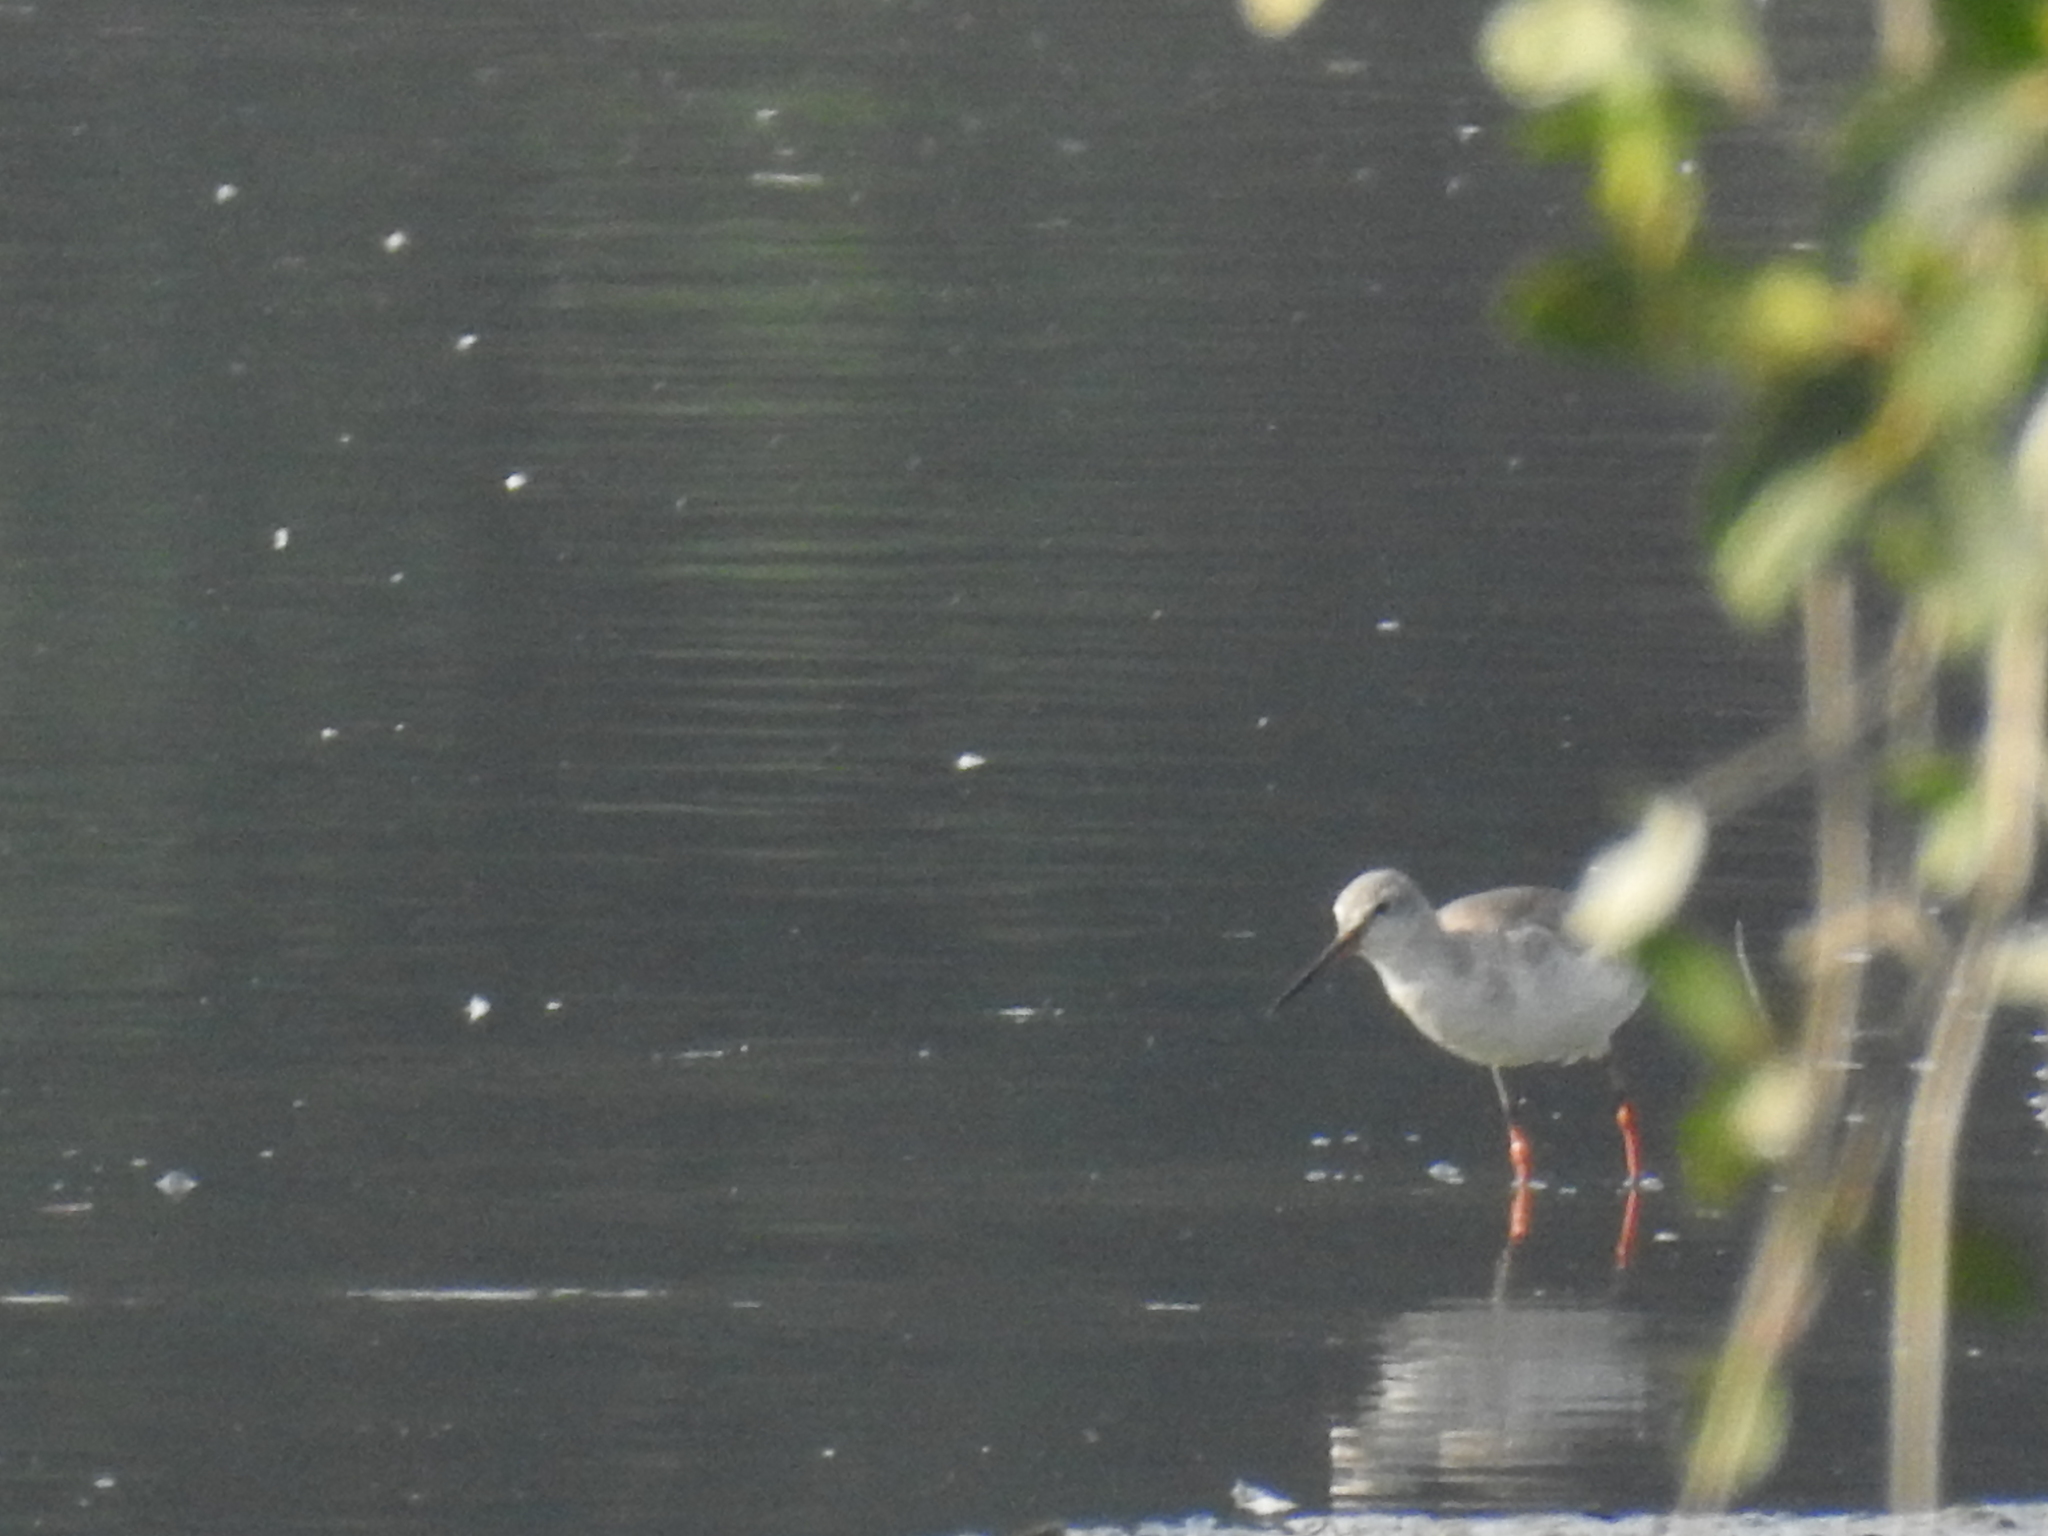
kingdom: Animalia
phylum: Chordata
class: Aves
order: Charadriiformes
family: Scolopacidae
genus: Tringa
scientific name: Tringa erythropus
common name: Spotted redshank
